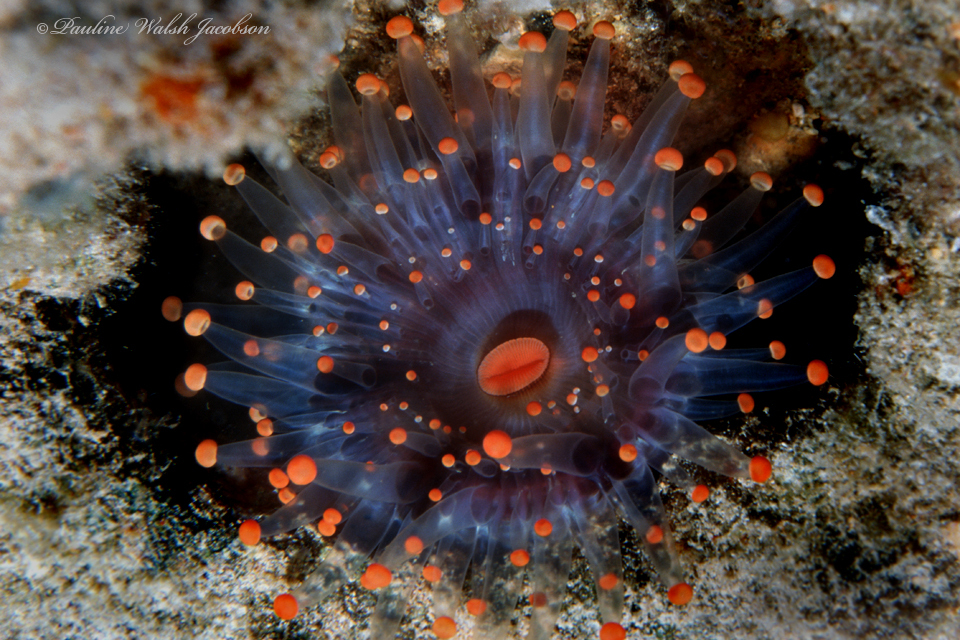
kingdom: Animalia
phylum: Cnidaria
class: Anthozoa
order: Corallimorpharia
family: Corallimorphidae
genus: Pseudocorynactis
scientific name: Pseudocorynactis caribbeorum
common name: Orange ball anemone
